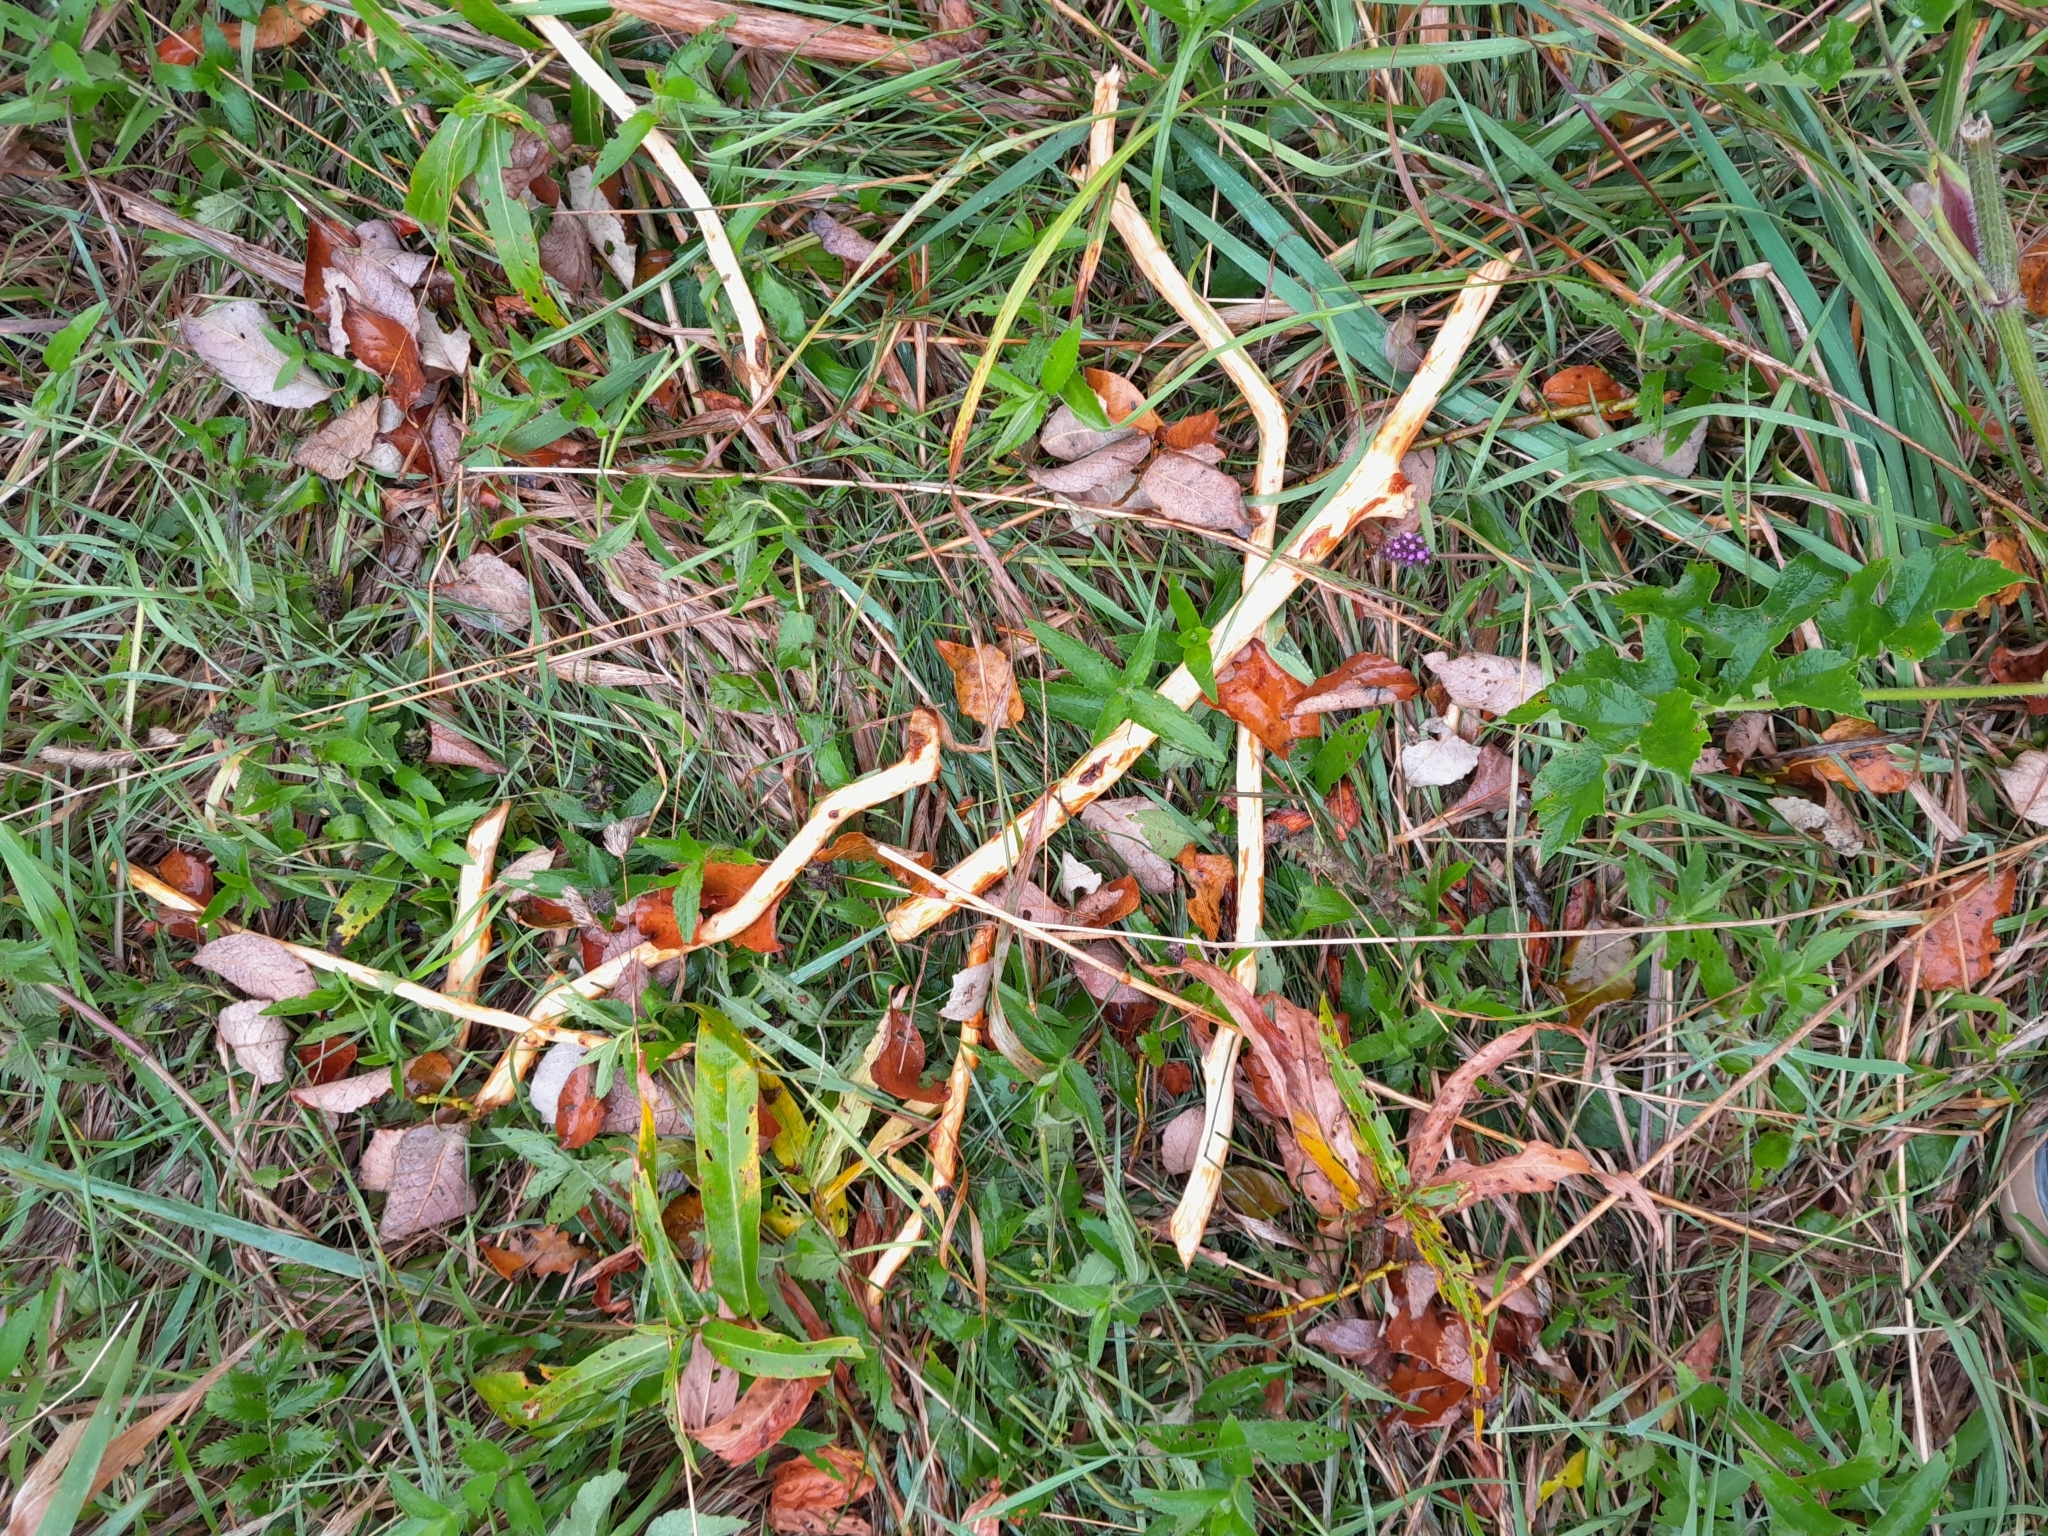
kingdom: Plantae
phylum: Tracheophyta
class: Magnoliopsida
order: Myrtales
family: Onagraceae
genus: Epilobium
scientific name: Epilobium palustre
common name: Marsh willowherb
